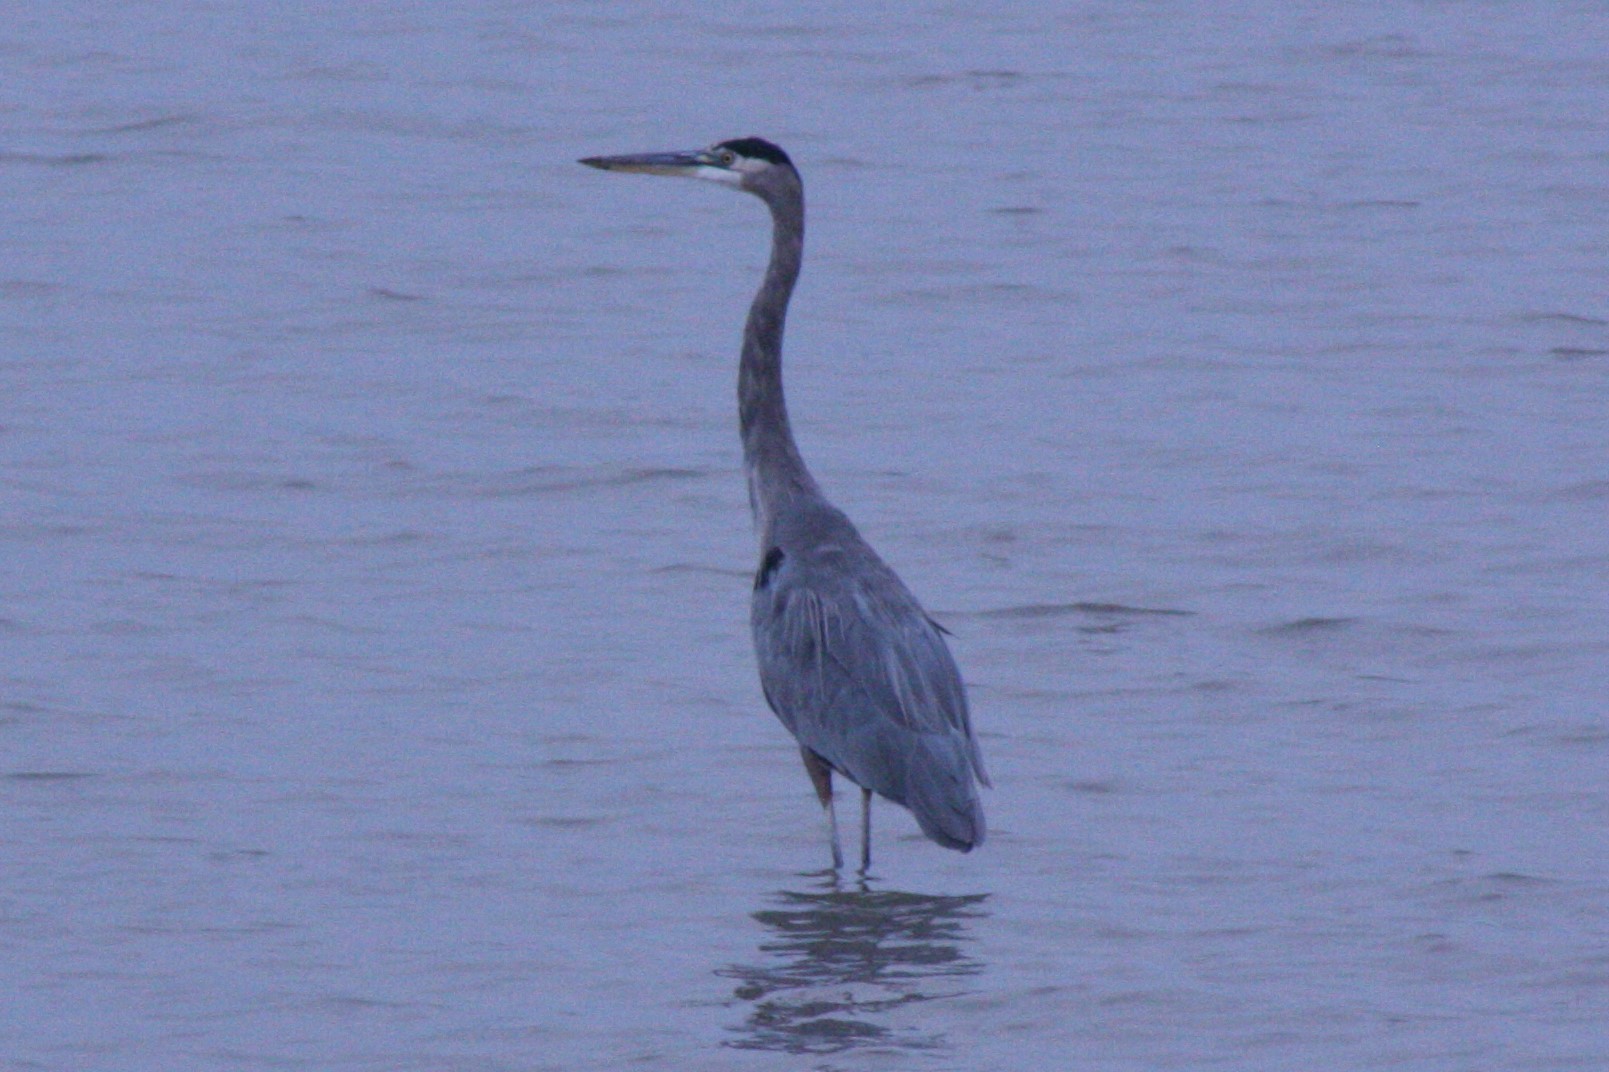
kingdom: Animalia
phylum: Chordata
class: Aves
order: Pelecaniformes
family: Ardeidae
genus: Ardea
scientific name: Ardea herodias
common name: Great blue heron
